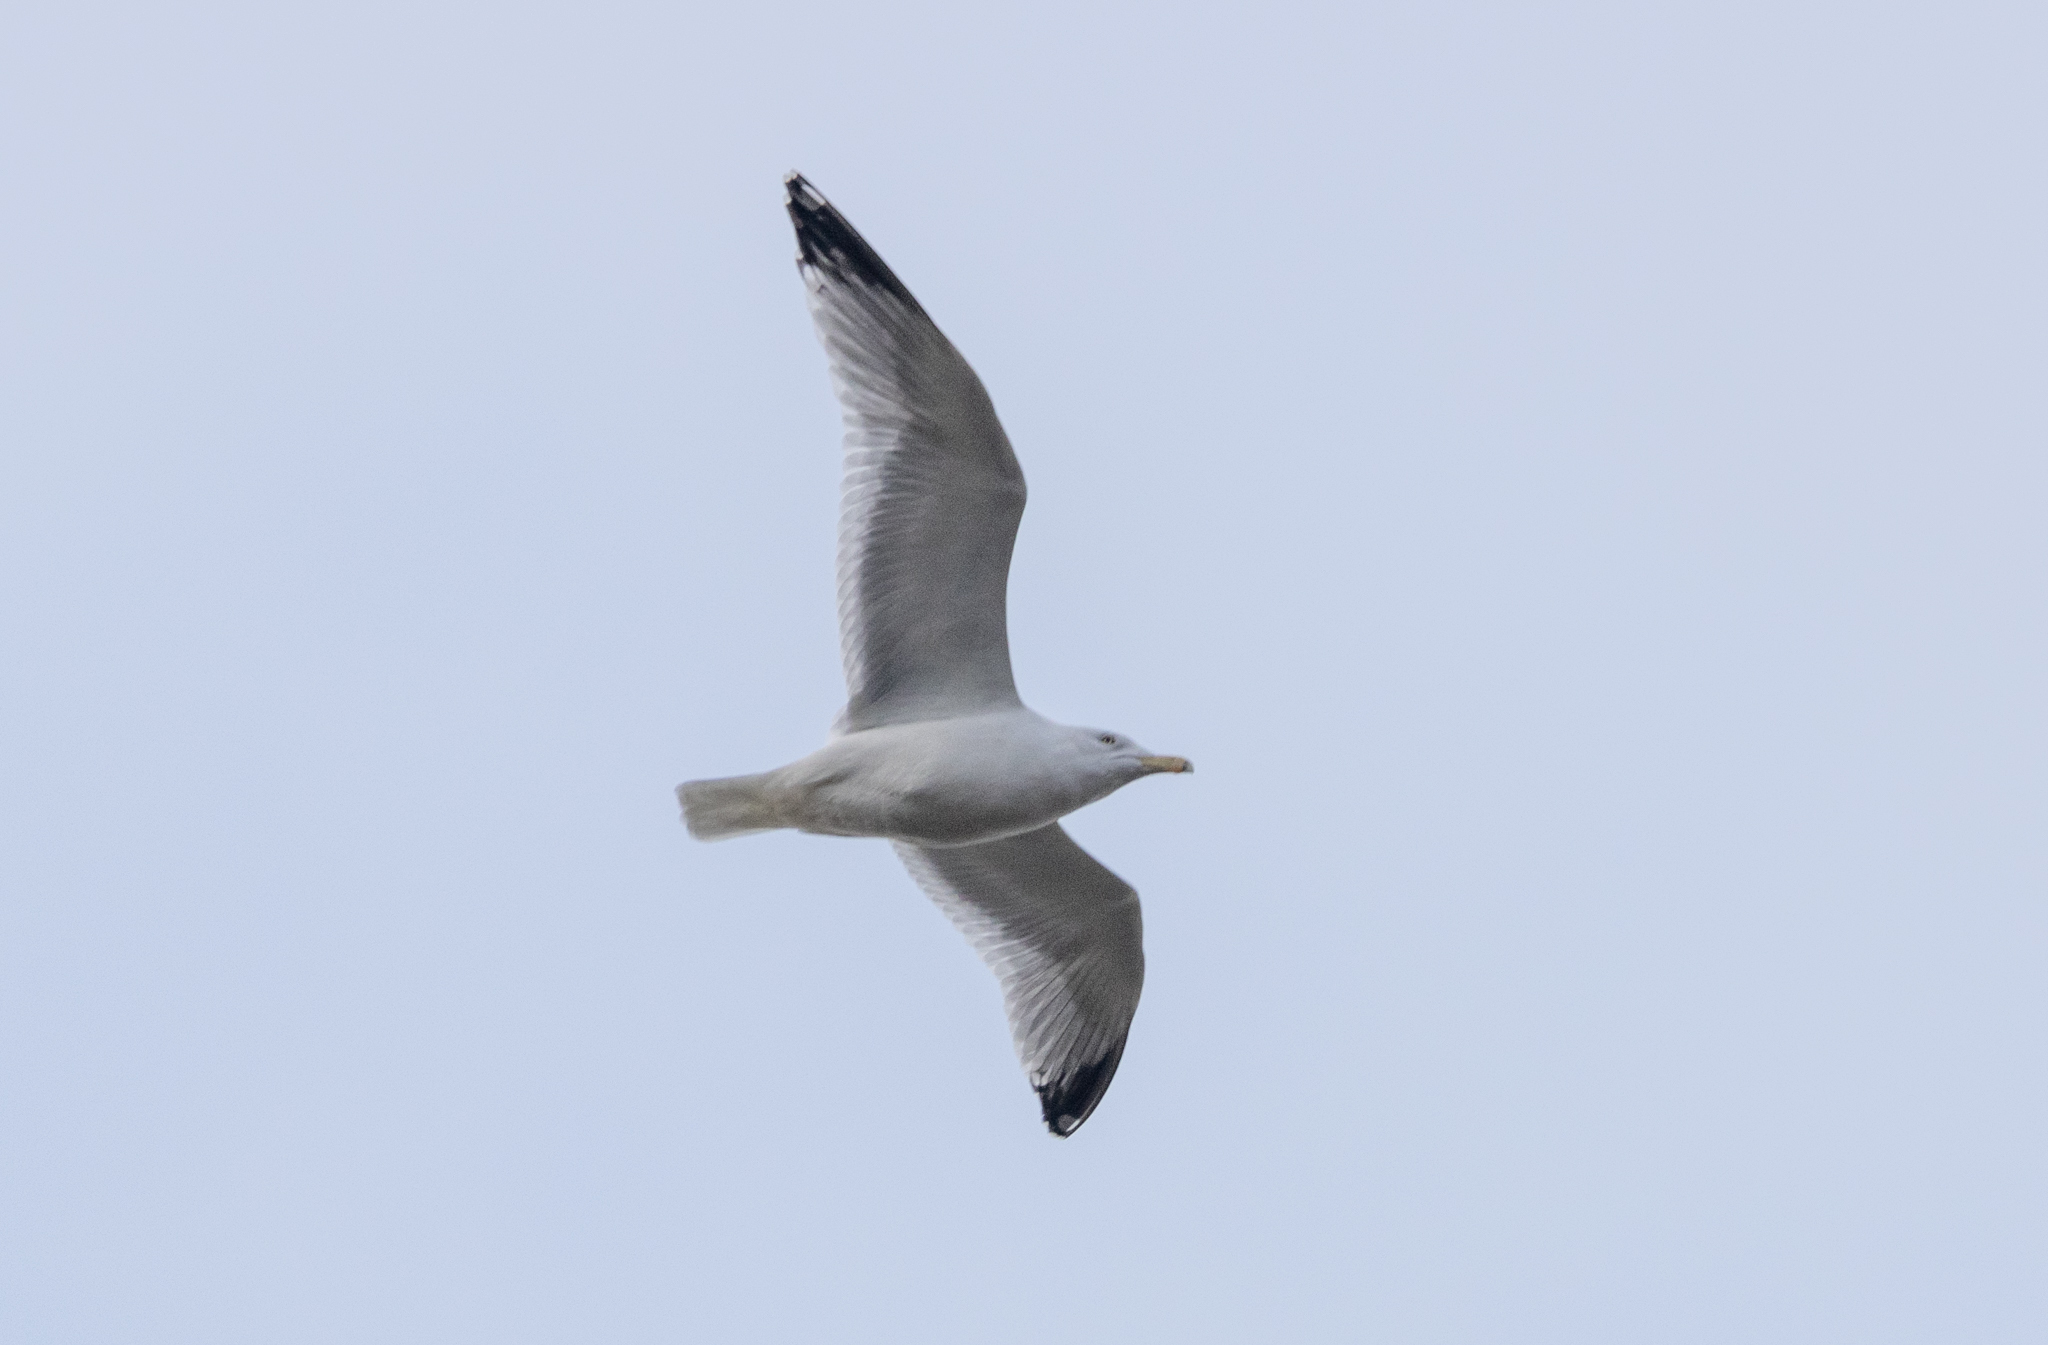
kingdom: Animalia
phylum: Chordata
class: Aves
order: Charadriiformes
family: Laridae
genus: Larus
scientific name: Larus argentatus
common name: Herring gull
